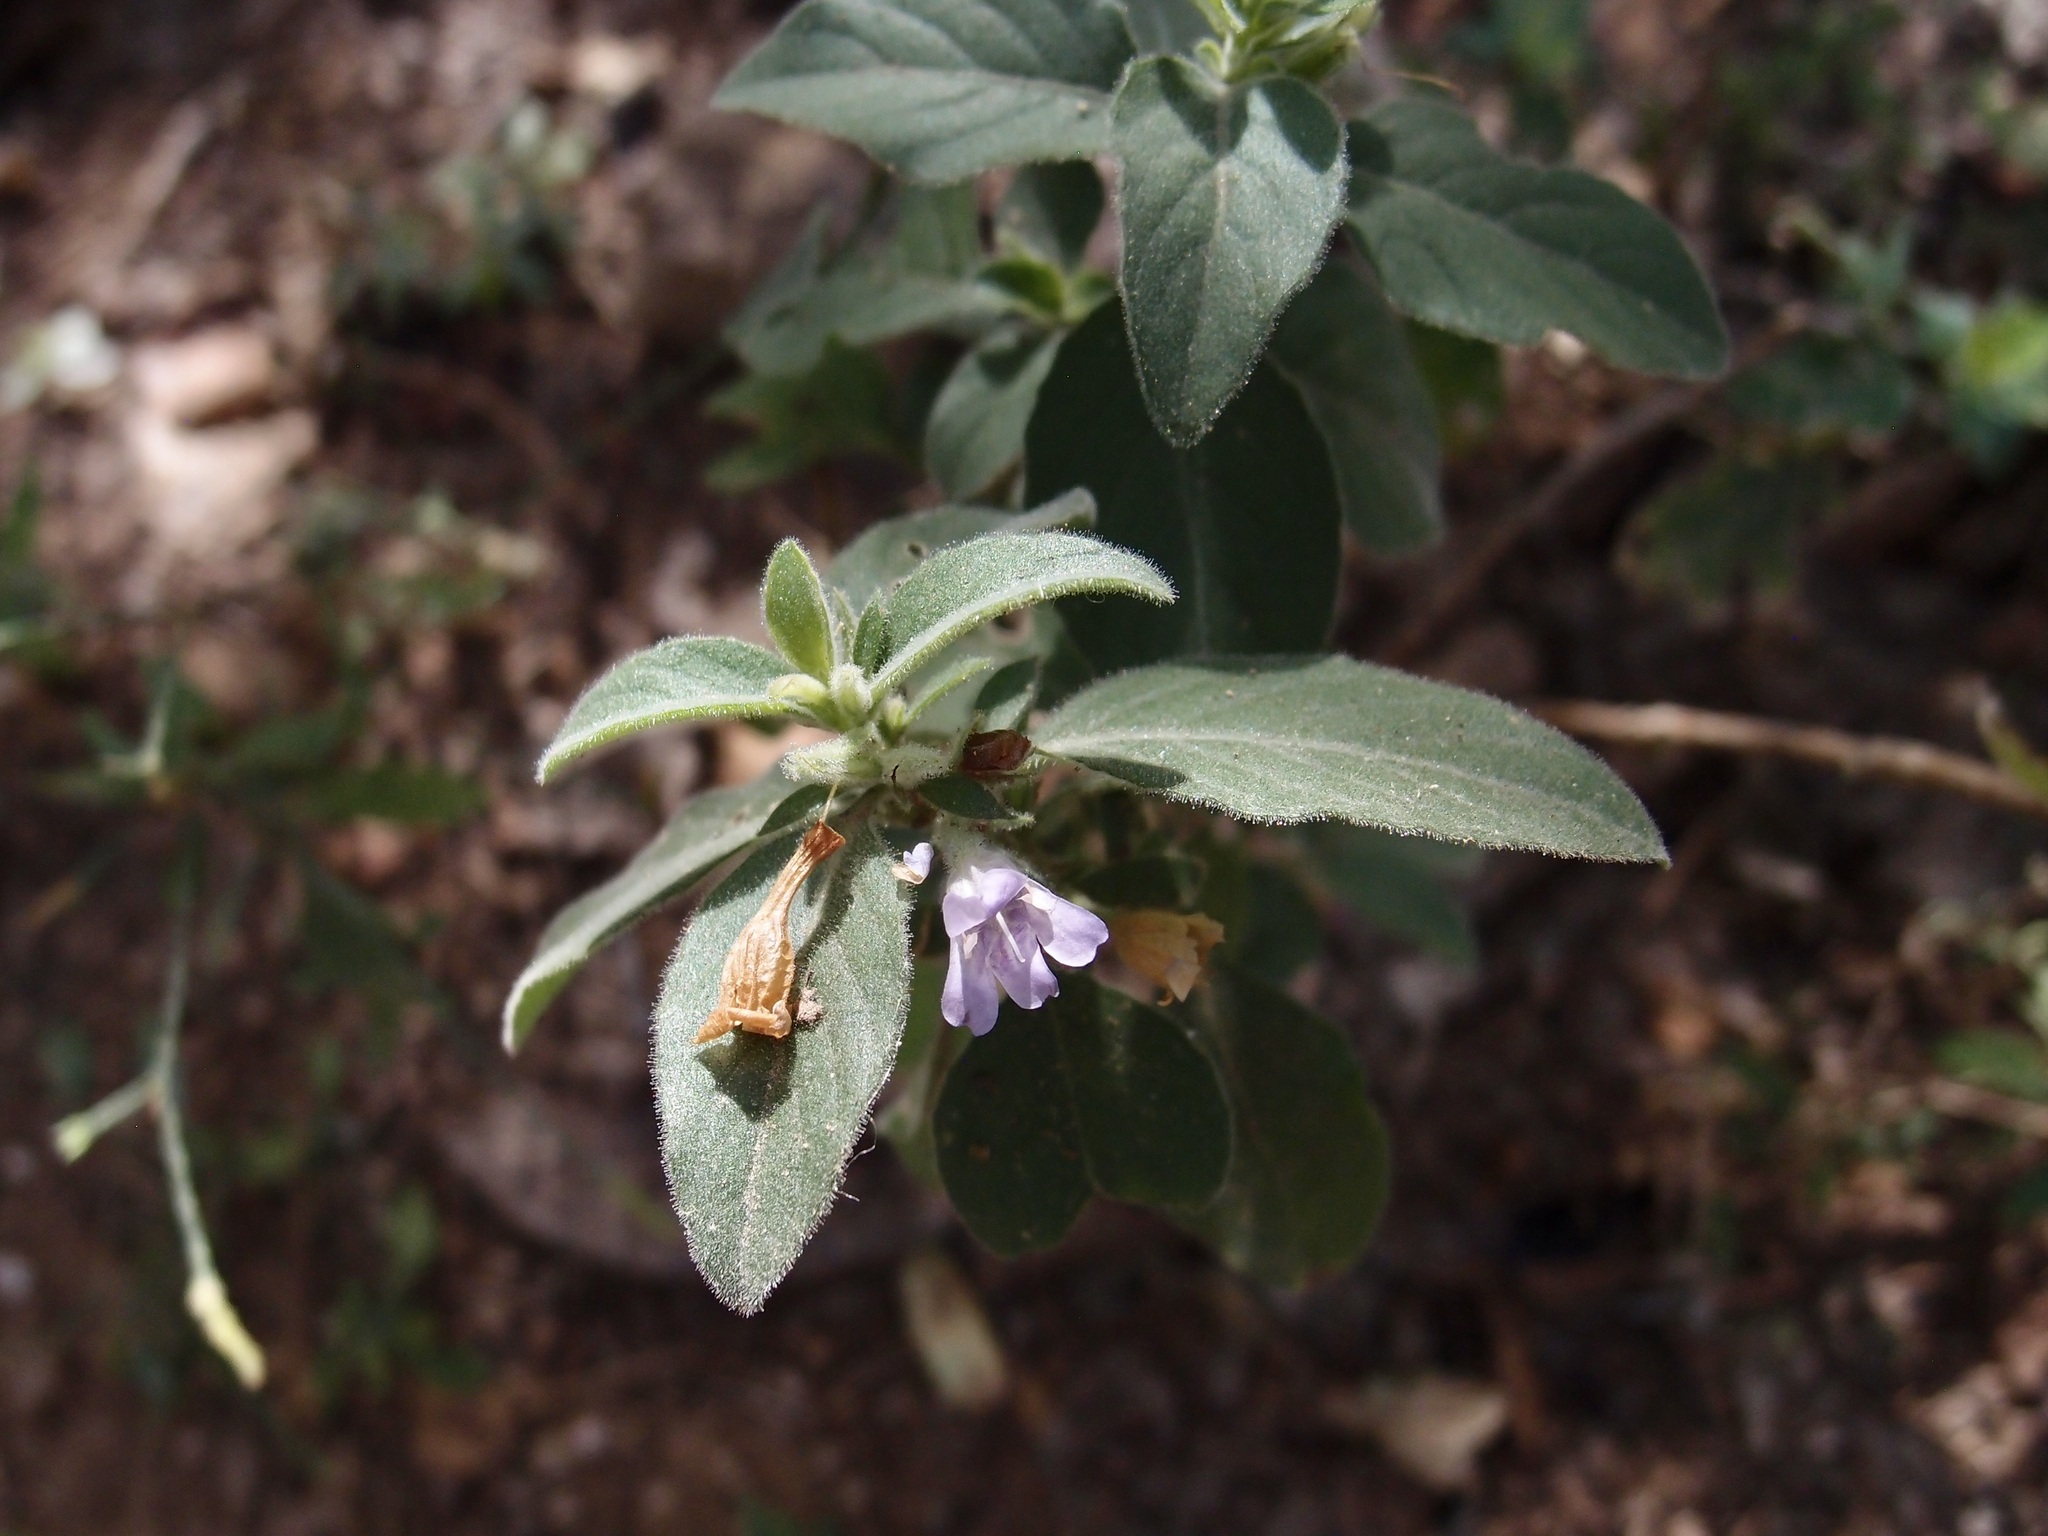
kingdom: Plantae
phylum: Tracheophyta
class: Magnoliopsida
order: Lamiales
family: Acanthaceae
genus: Ruellia
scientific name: Ruellia inundata
